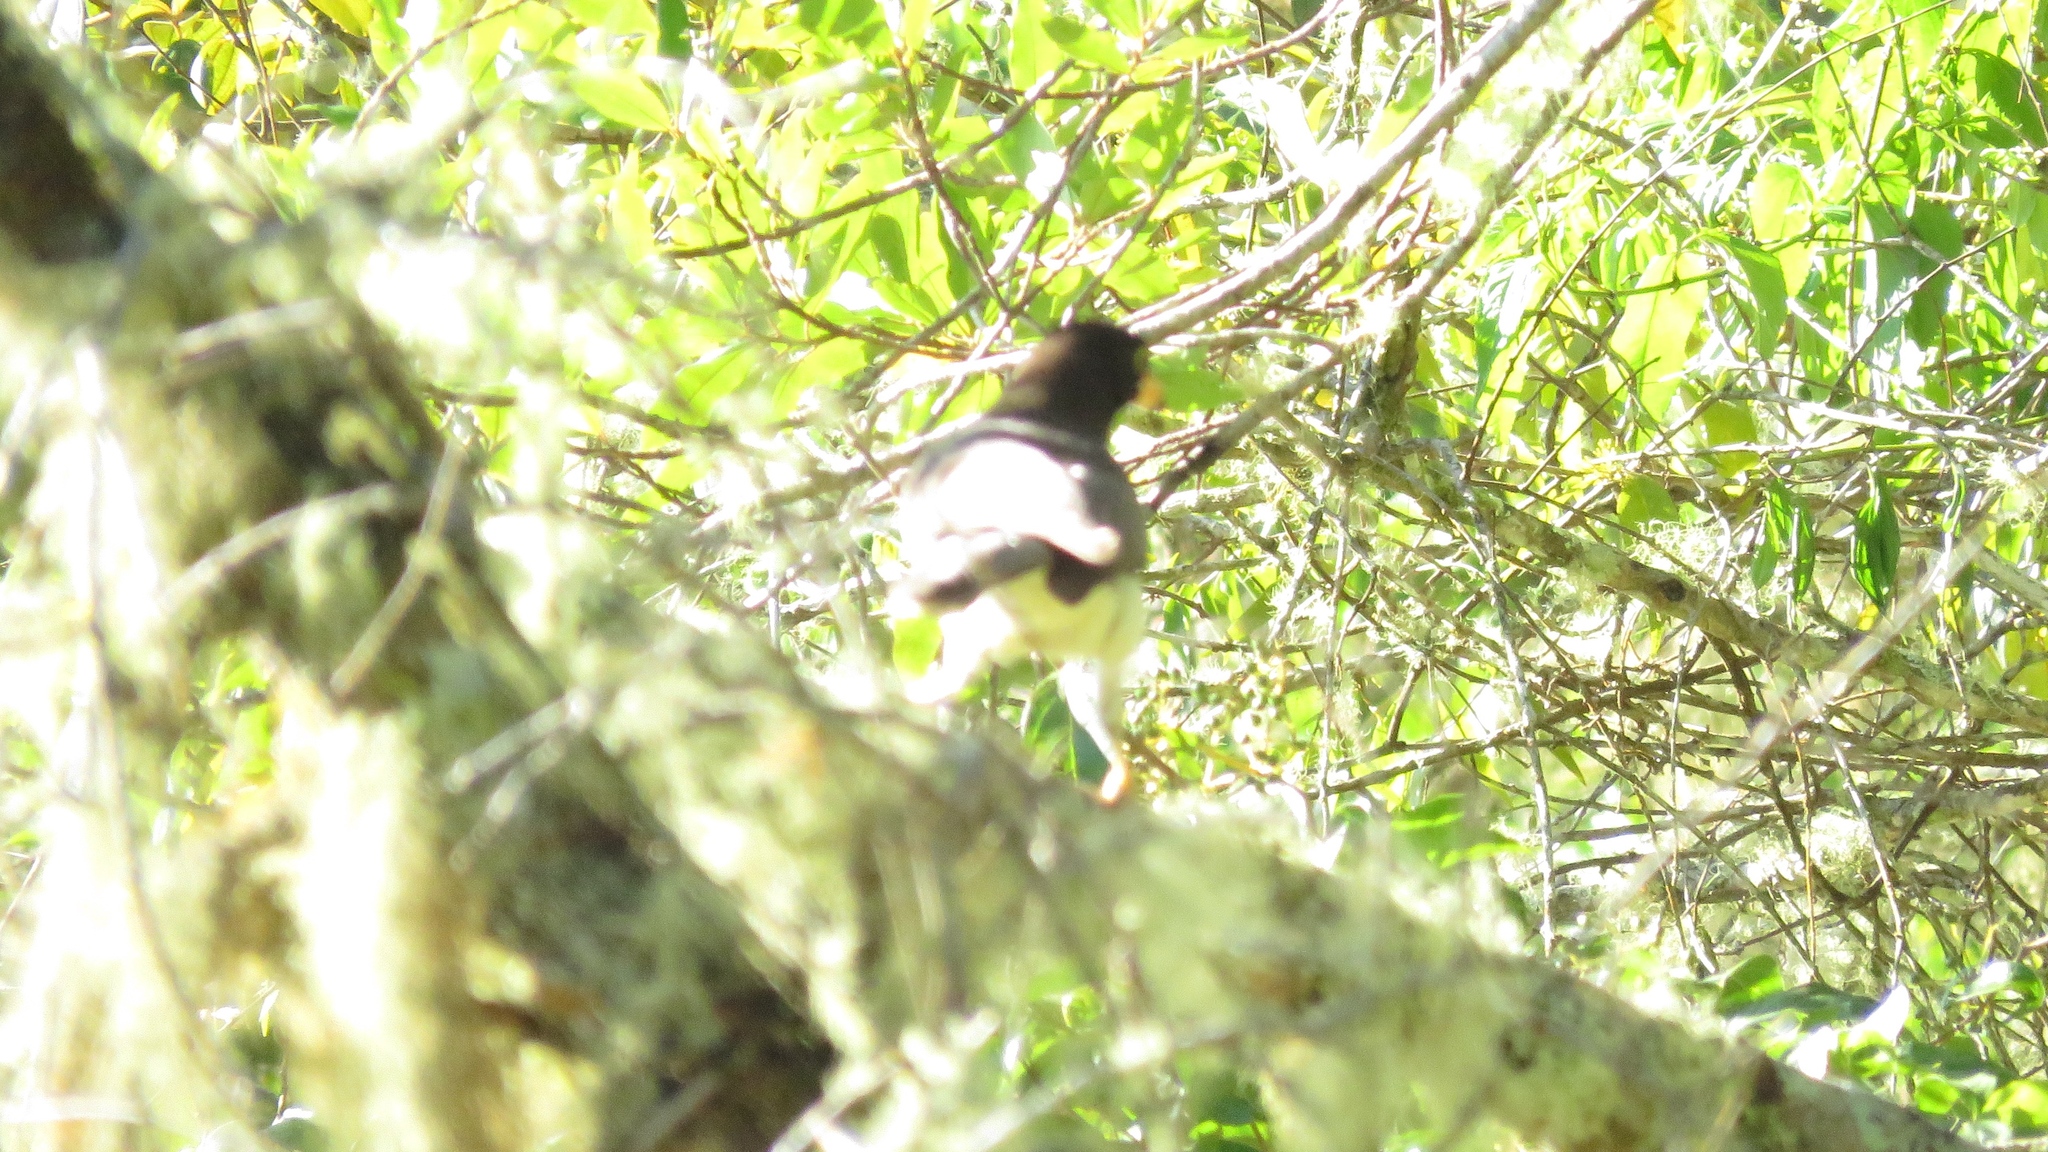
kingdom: Animalia
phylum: Chordata
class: Aves
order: Passeriformes
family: Corvidae
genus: Psilorhinus
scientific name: Psilorhinus morio
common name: Brown jay
